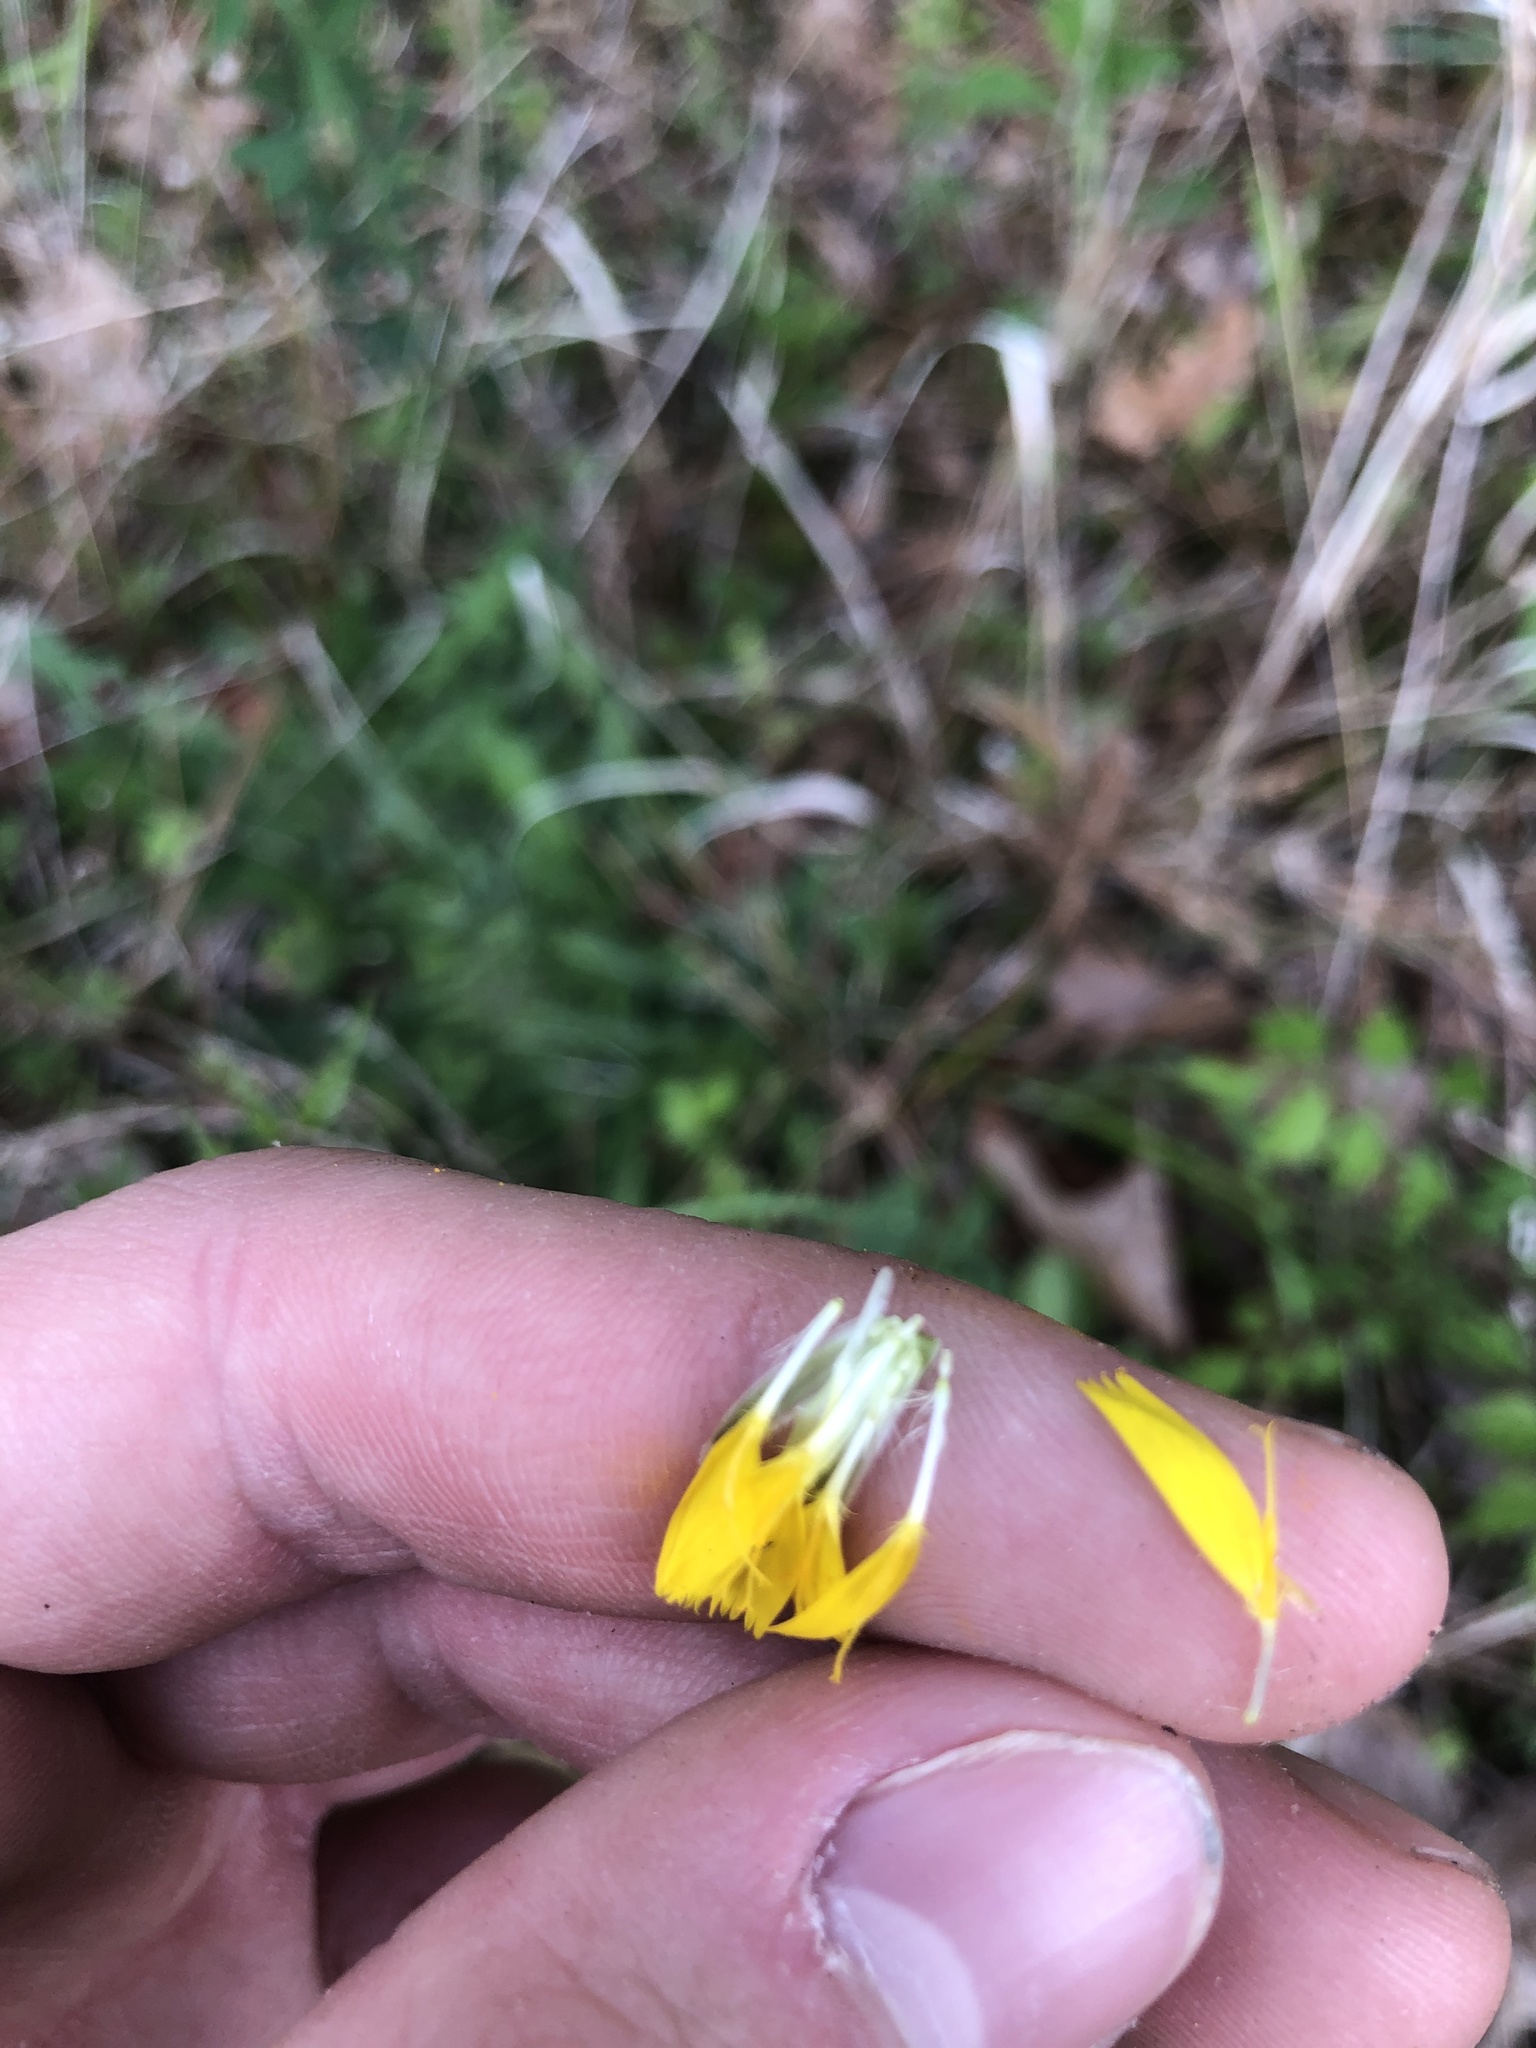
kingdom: Plantae
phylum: Tracheophyta
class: Magnoliopsida
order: Asterales
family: Asteraceae
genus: Hypochaeris
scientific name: Hypochaeris radicata
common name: Flatweed
